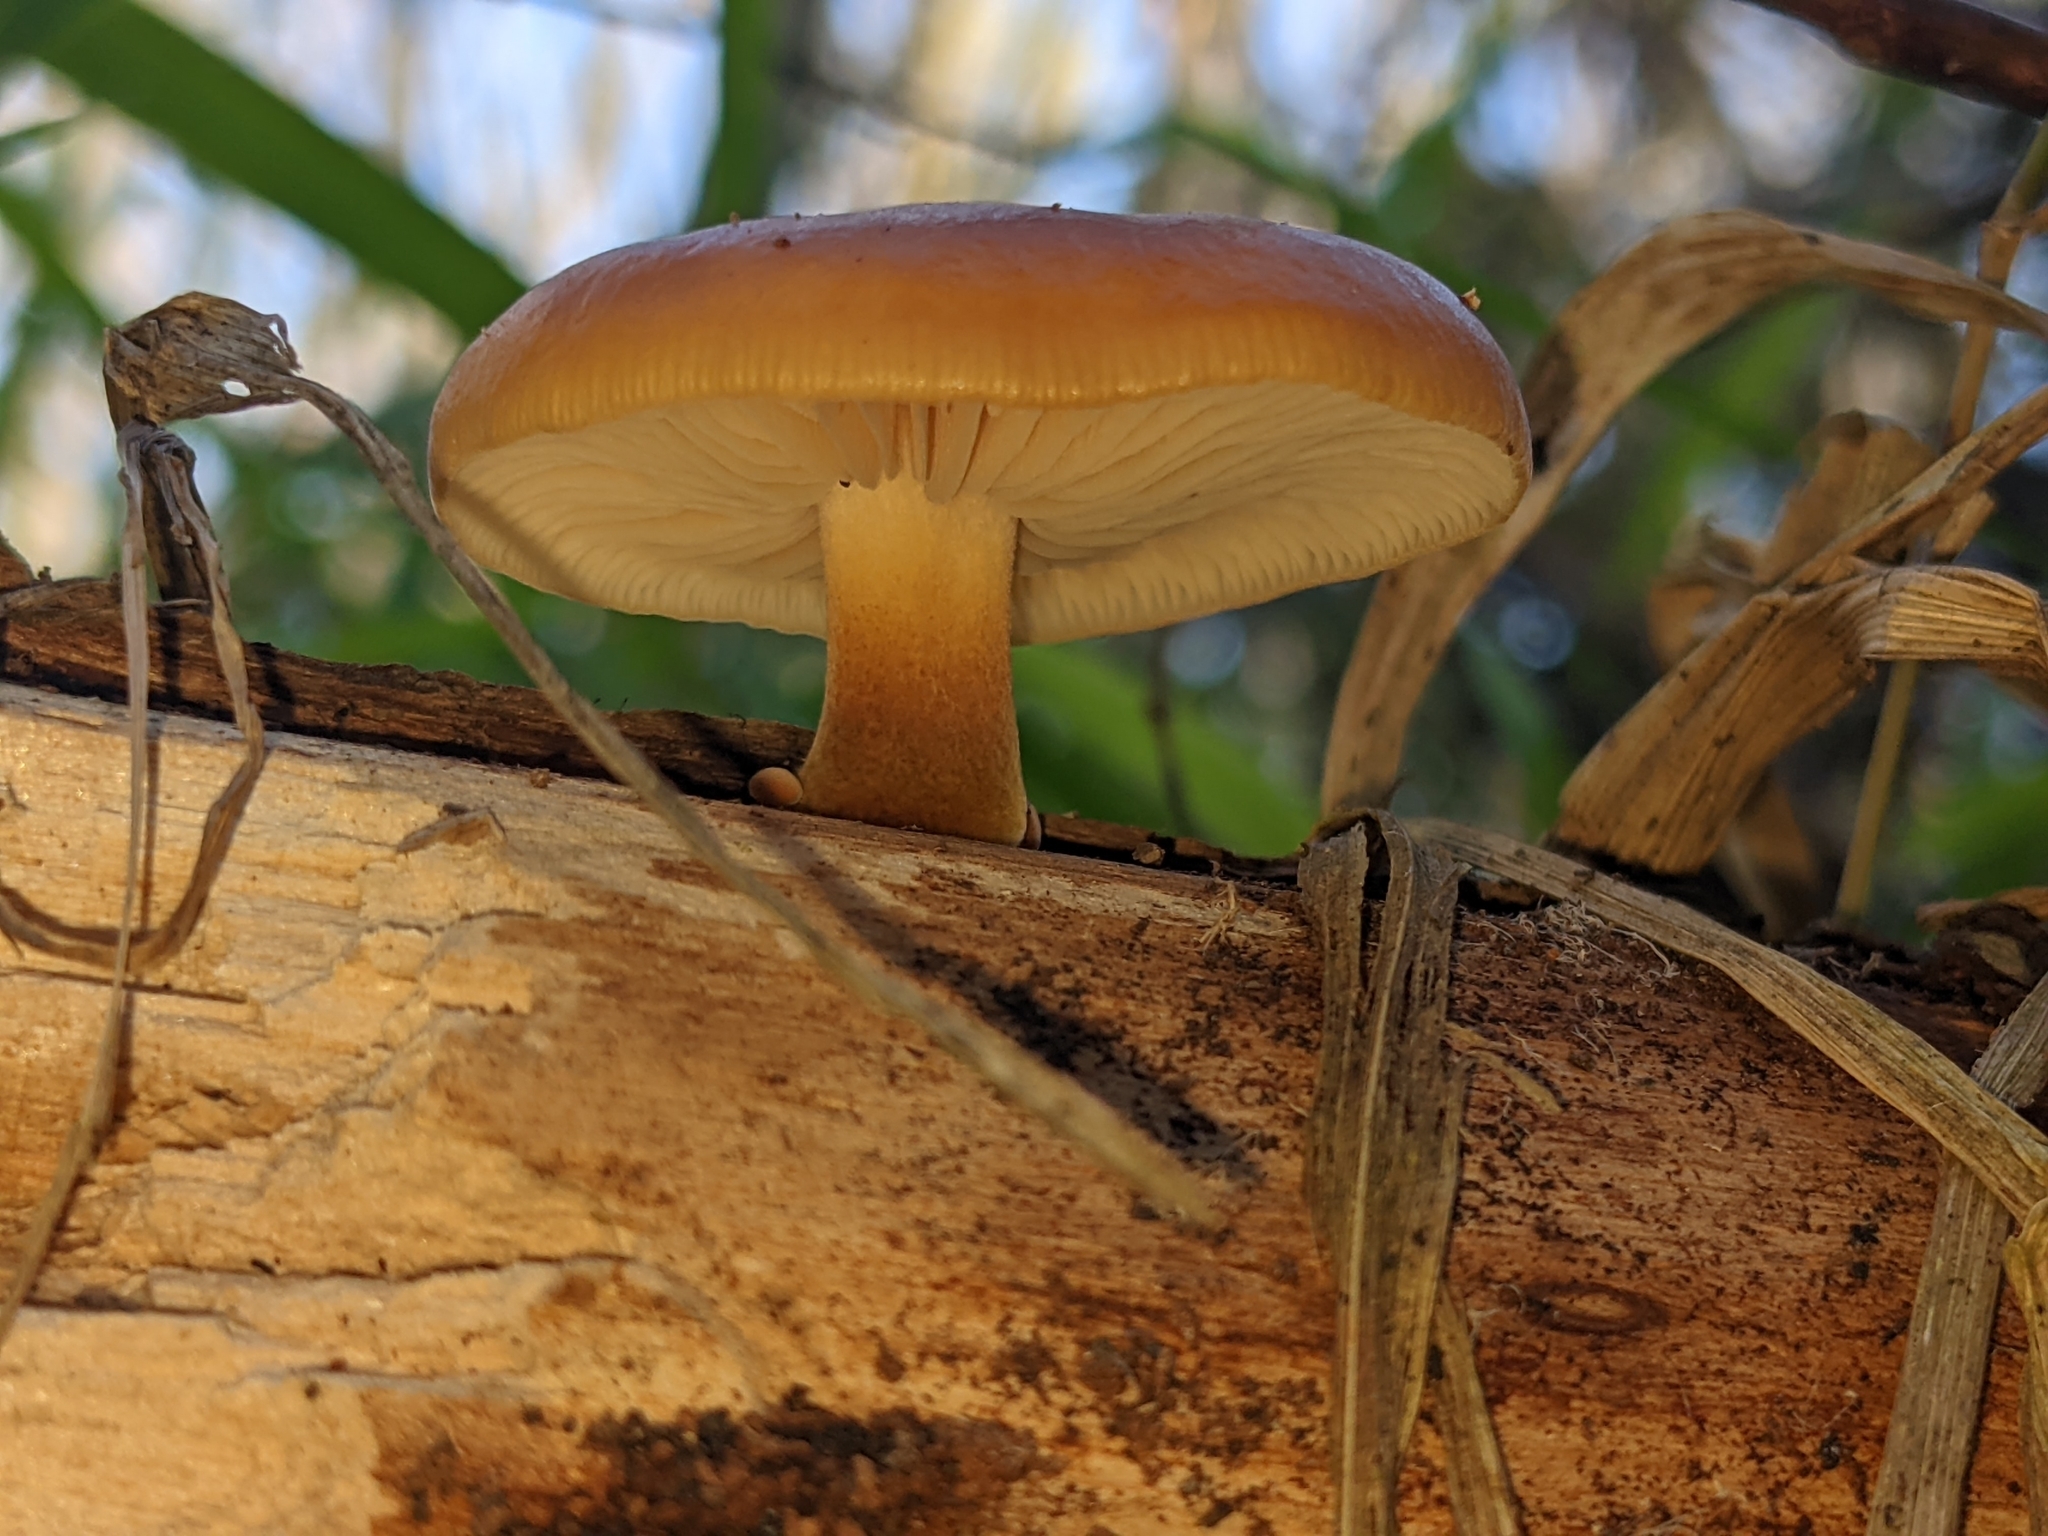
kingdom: Fungi
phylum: Basidiomycota
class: Agaricomycetes
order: Agaricales
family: Physalacriaceae
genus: Flammulina
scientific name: Flammulina velutipes
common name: Velvet shank
